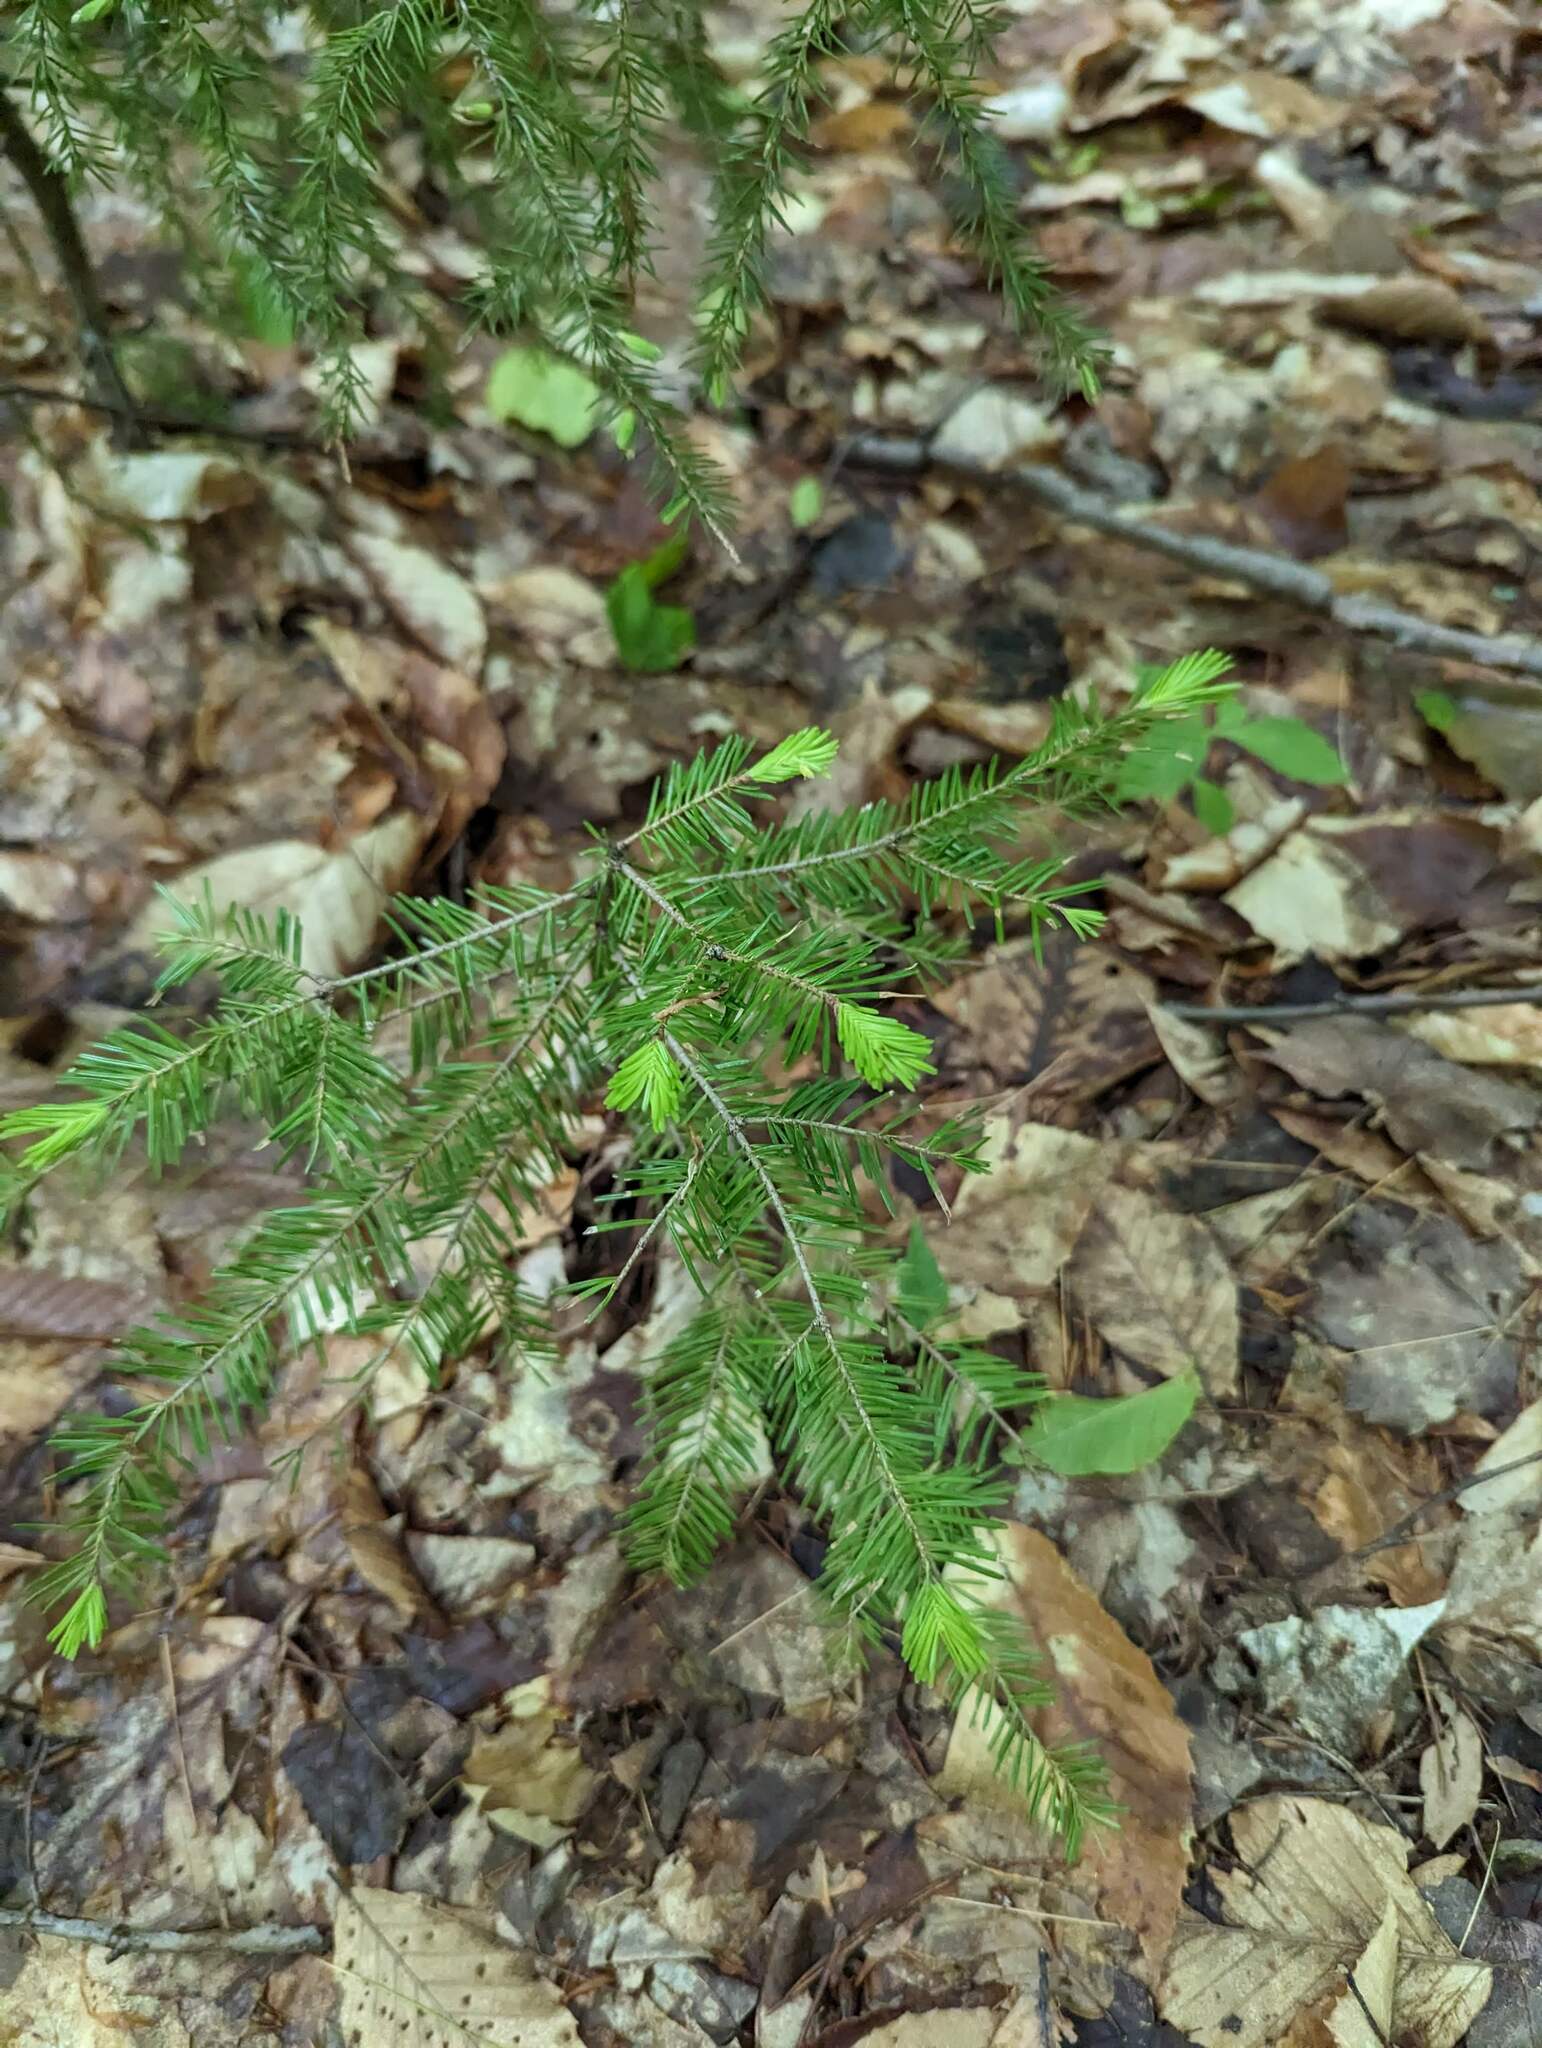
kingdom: Plantae
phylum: Tracheophyta
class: Pinopsida
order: Pinales
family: Pinaceae
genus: Tsuga
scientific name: Tsuga canadensis
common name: Eastern hemlock
